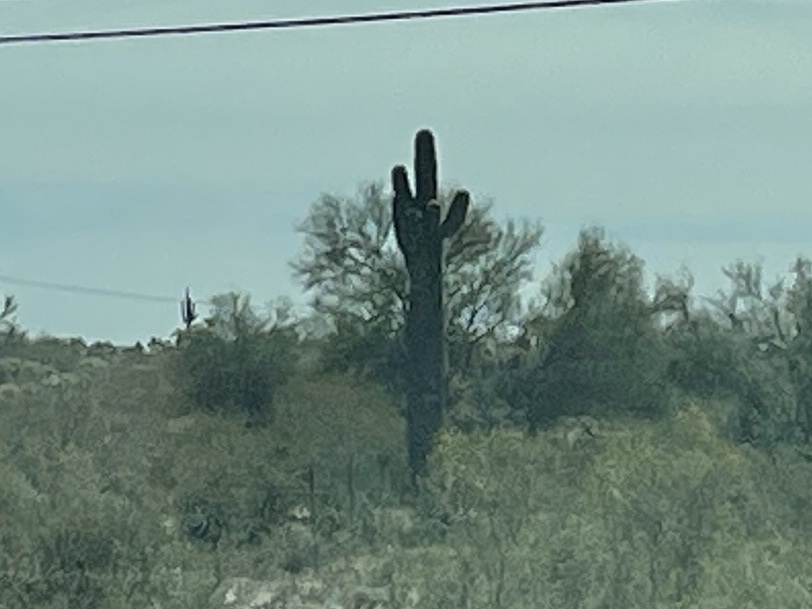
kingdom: Plantae
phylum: Tracheophyta
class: Magnoliopsida
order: Caryophyllales
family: Cactaceae
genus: Carnegiea
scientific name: Carnegiea gigantea
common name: Saguaro
